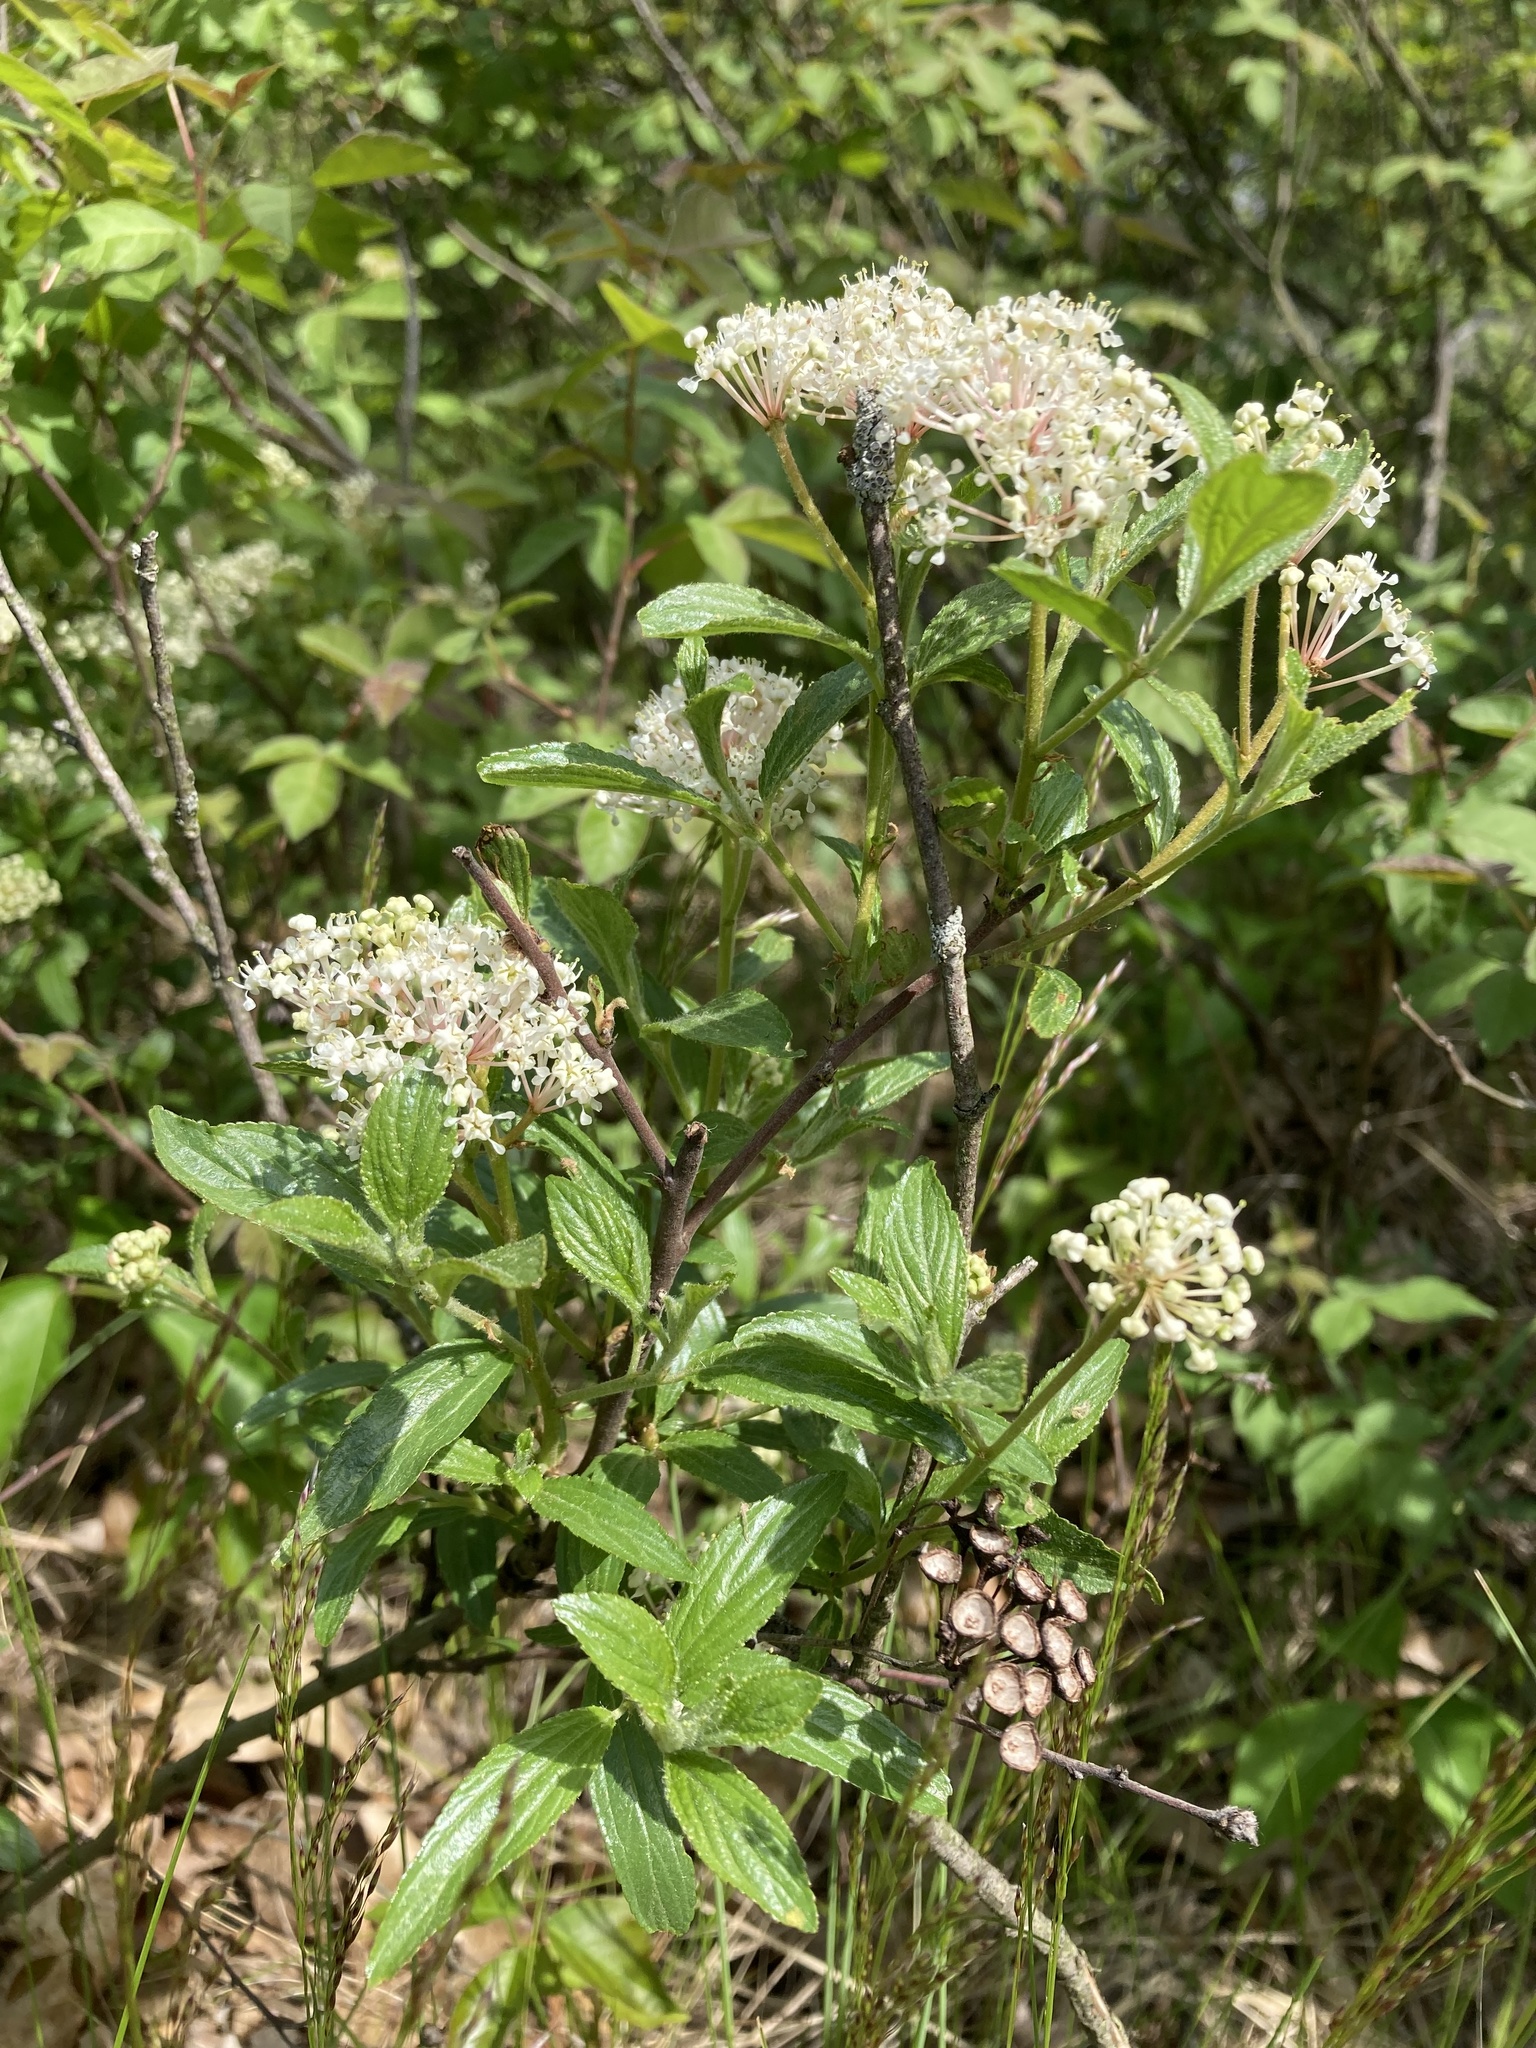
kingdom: Plantae
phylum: Tracheophyta
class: Magnoliopsida
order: Rosales
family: Rhamnaceae
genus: Ceanothus
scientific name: Ceanothus herbaceus
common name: Inland ceanothus
